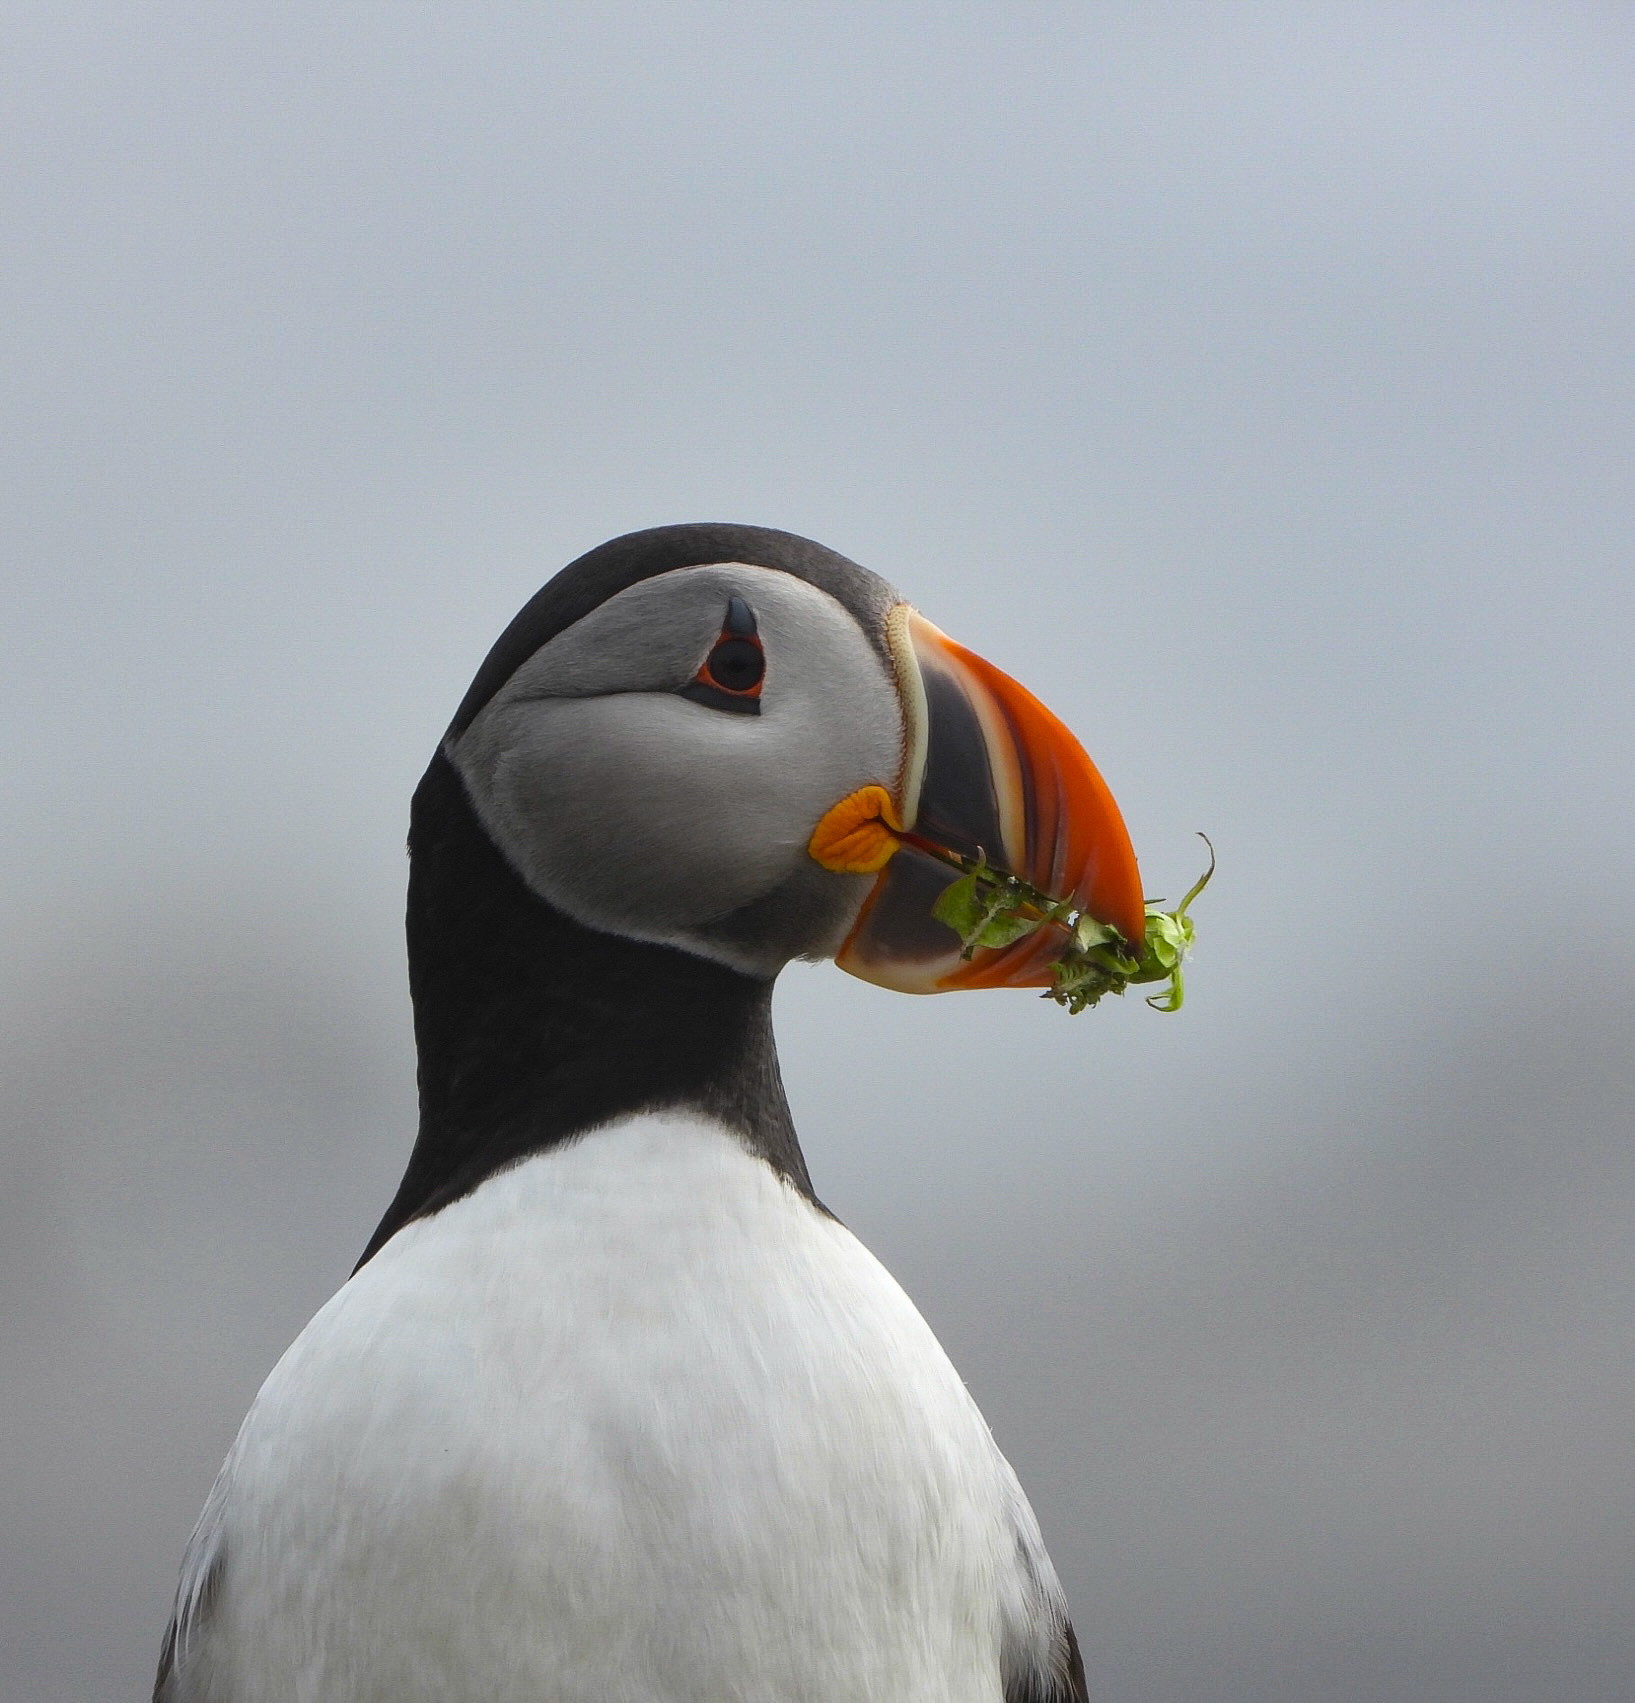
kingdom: Animalia
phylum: Chordata
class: Aves
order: Charadriiformes
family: Alcidae
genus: Fratercula
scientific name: Fratercula arctica
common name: Atlantic puffin
